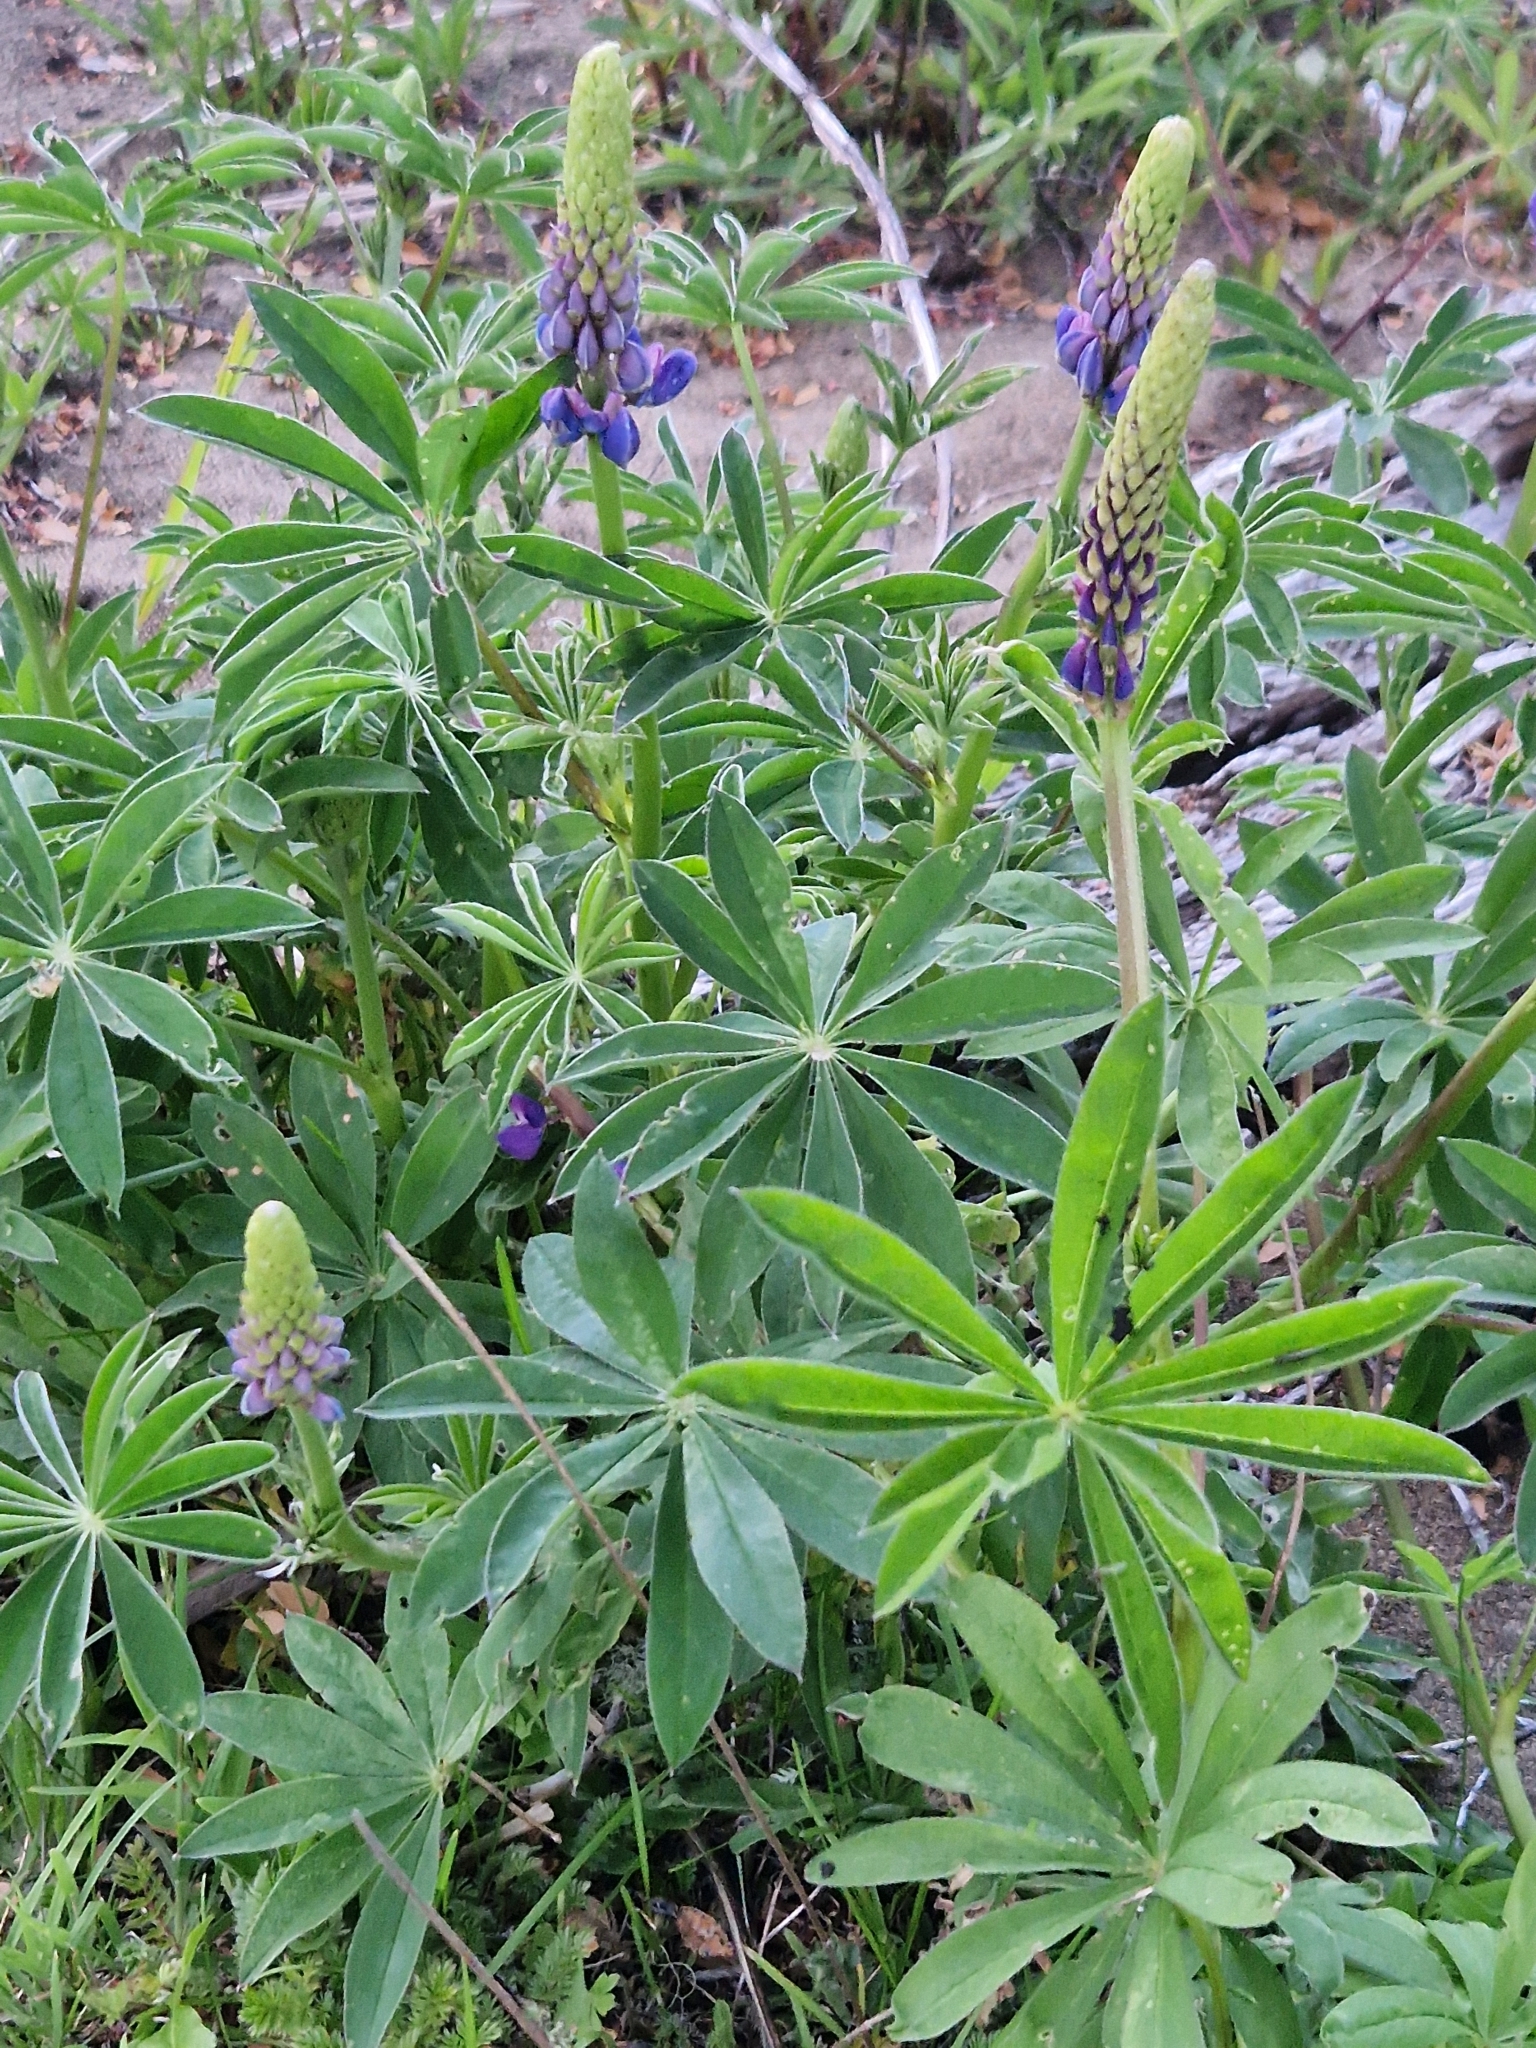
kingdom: Plantae
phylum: Tracheophyta
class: Magnoliopsida
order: Fabales
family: Fabaceae
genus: Lupinus
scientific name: Lupinus polyphyllus
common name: Garden lupin
